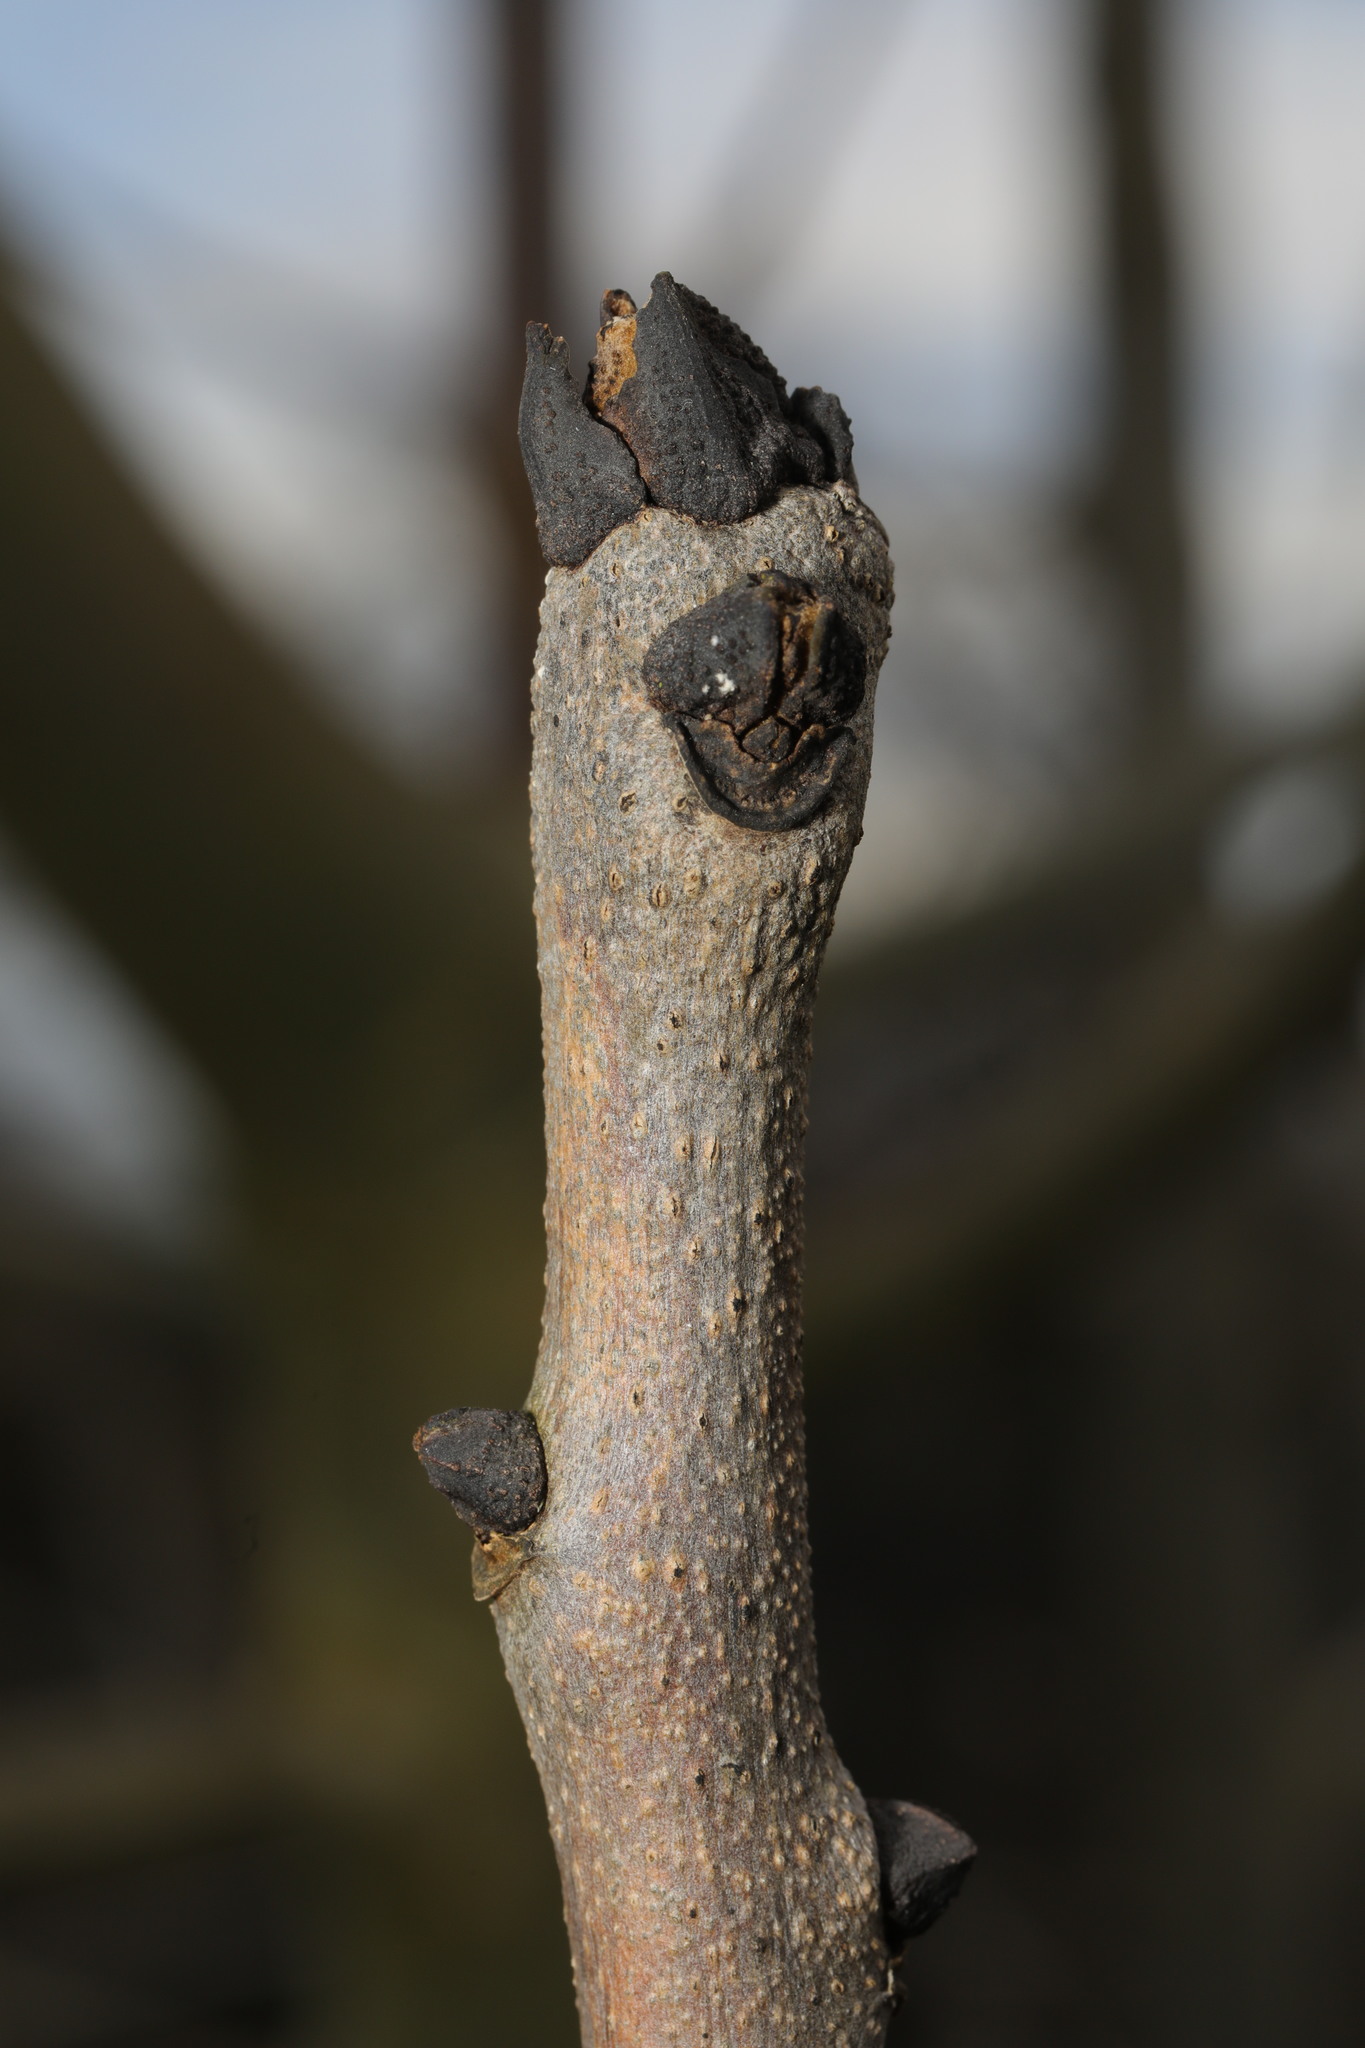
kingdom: Plantae
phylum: Tracheophyta
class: Magnoliopsida
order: Lamiales
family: Oleaceae
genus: Fraxinus
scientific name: Fraxinus excelsior
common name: European ash
